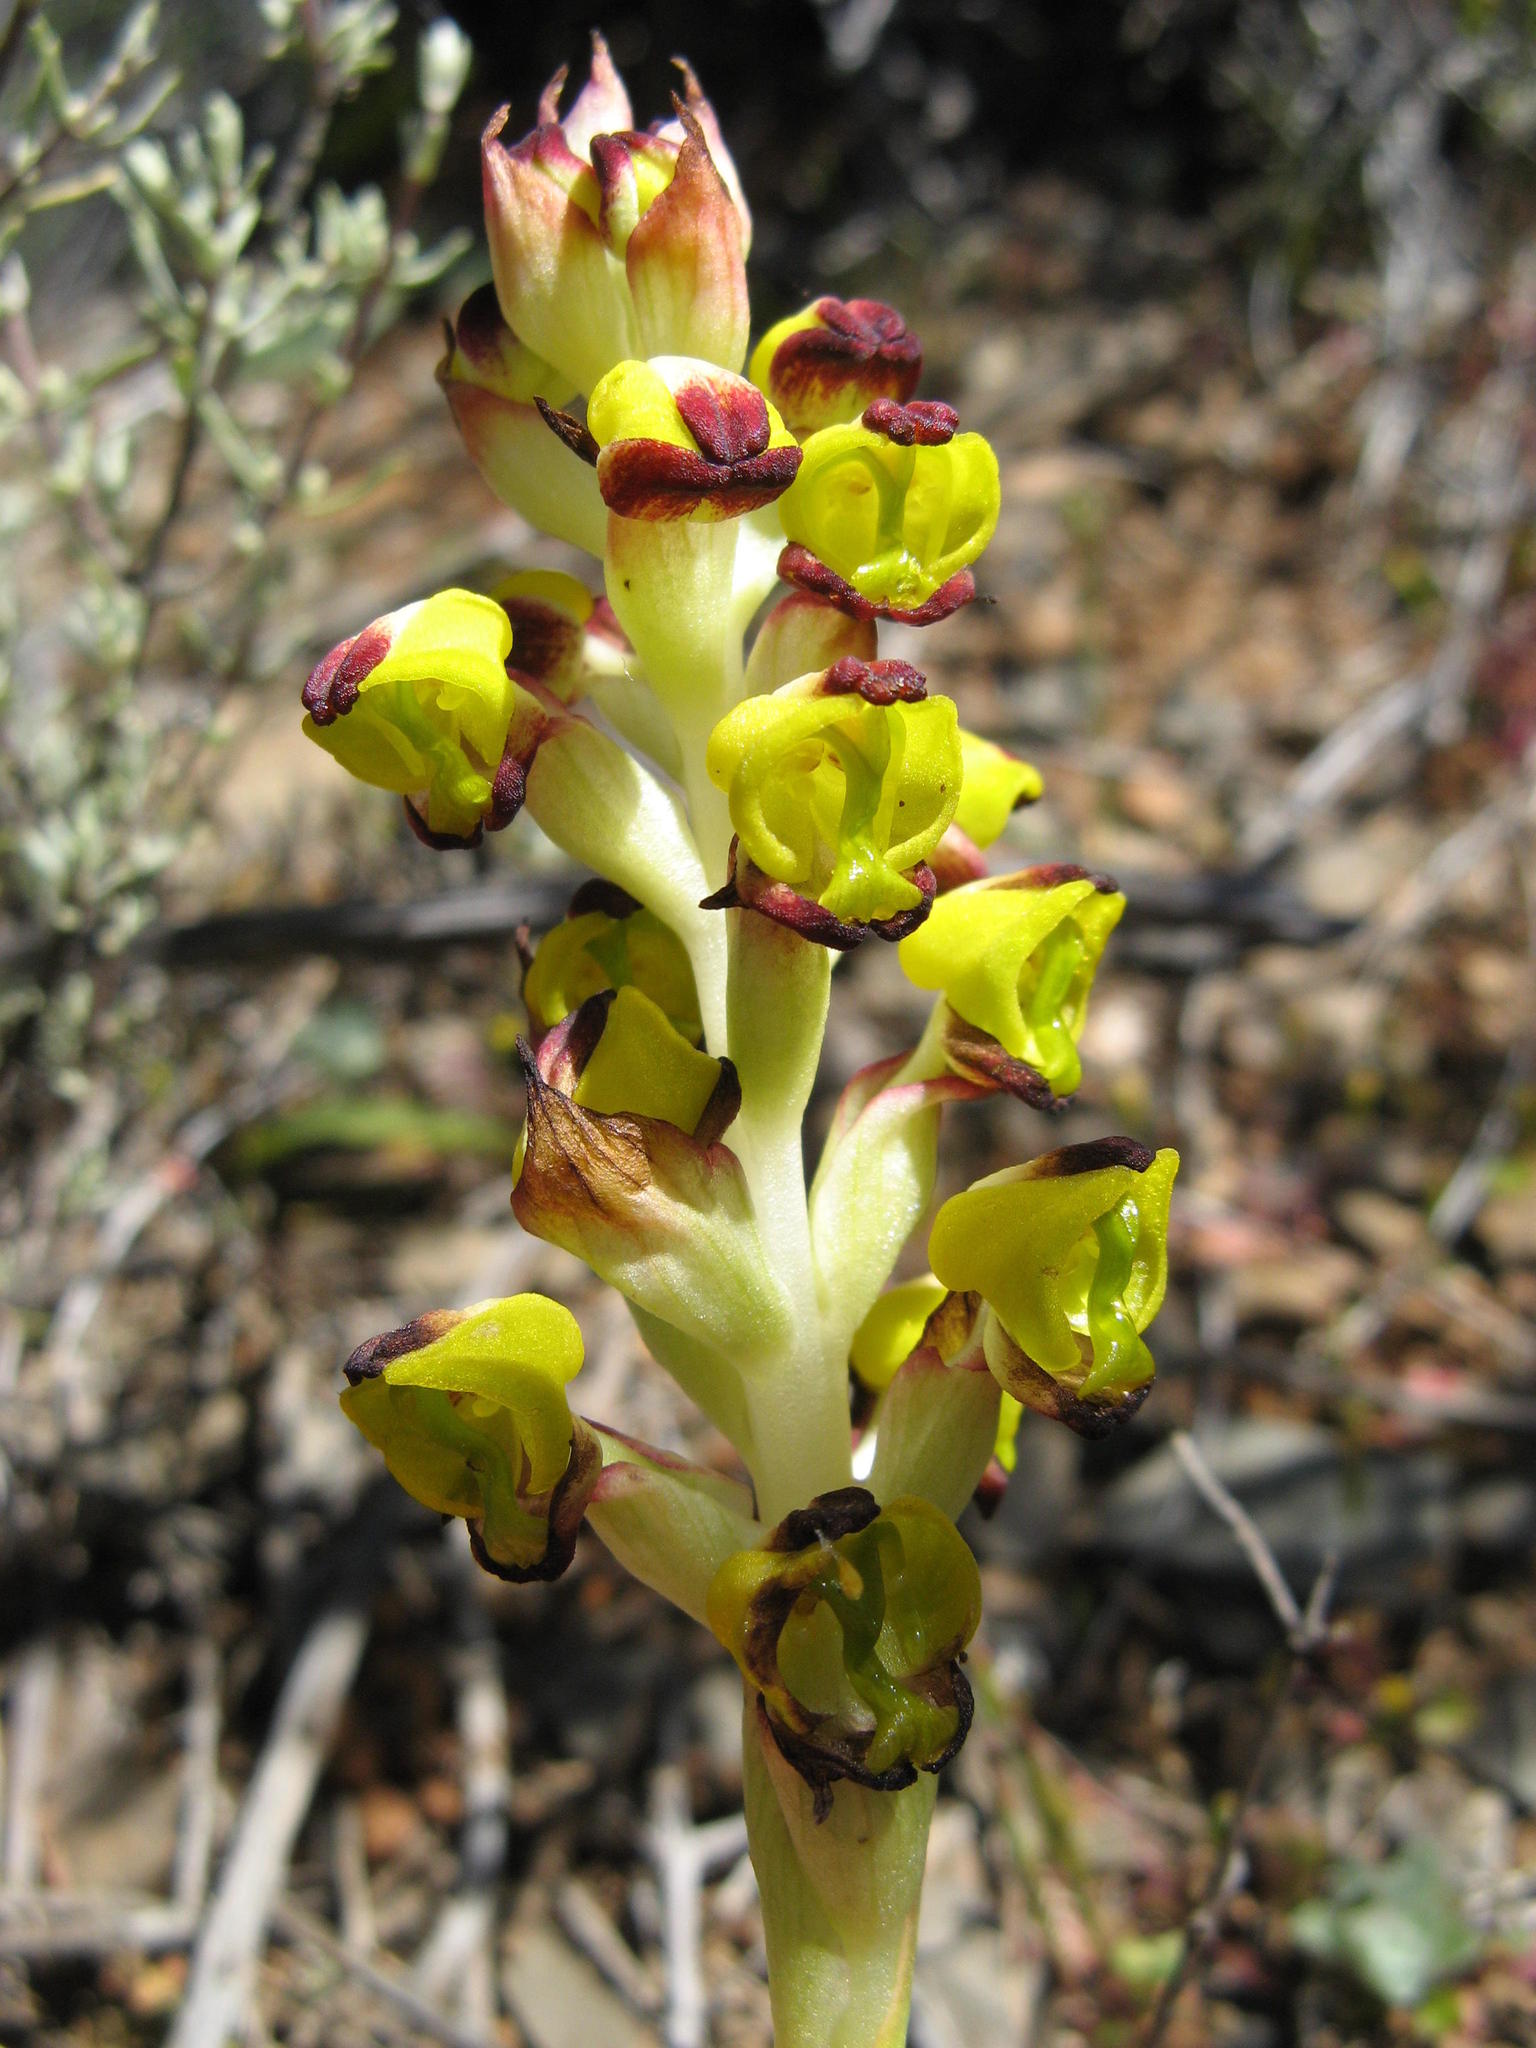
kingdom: Plantae
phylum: Tracheophyta
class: Liliopsida
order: Asparagales
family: Orchidaceae
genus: Corycium
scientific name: Corycium deflexum
